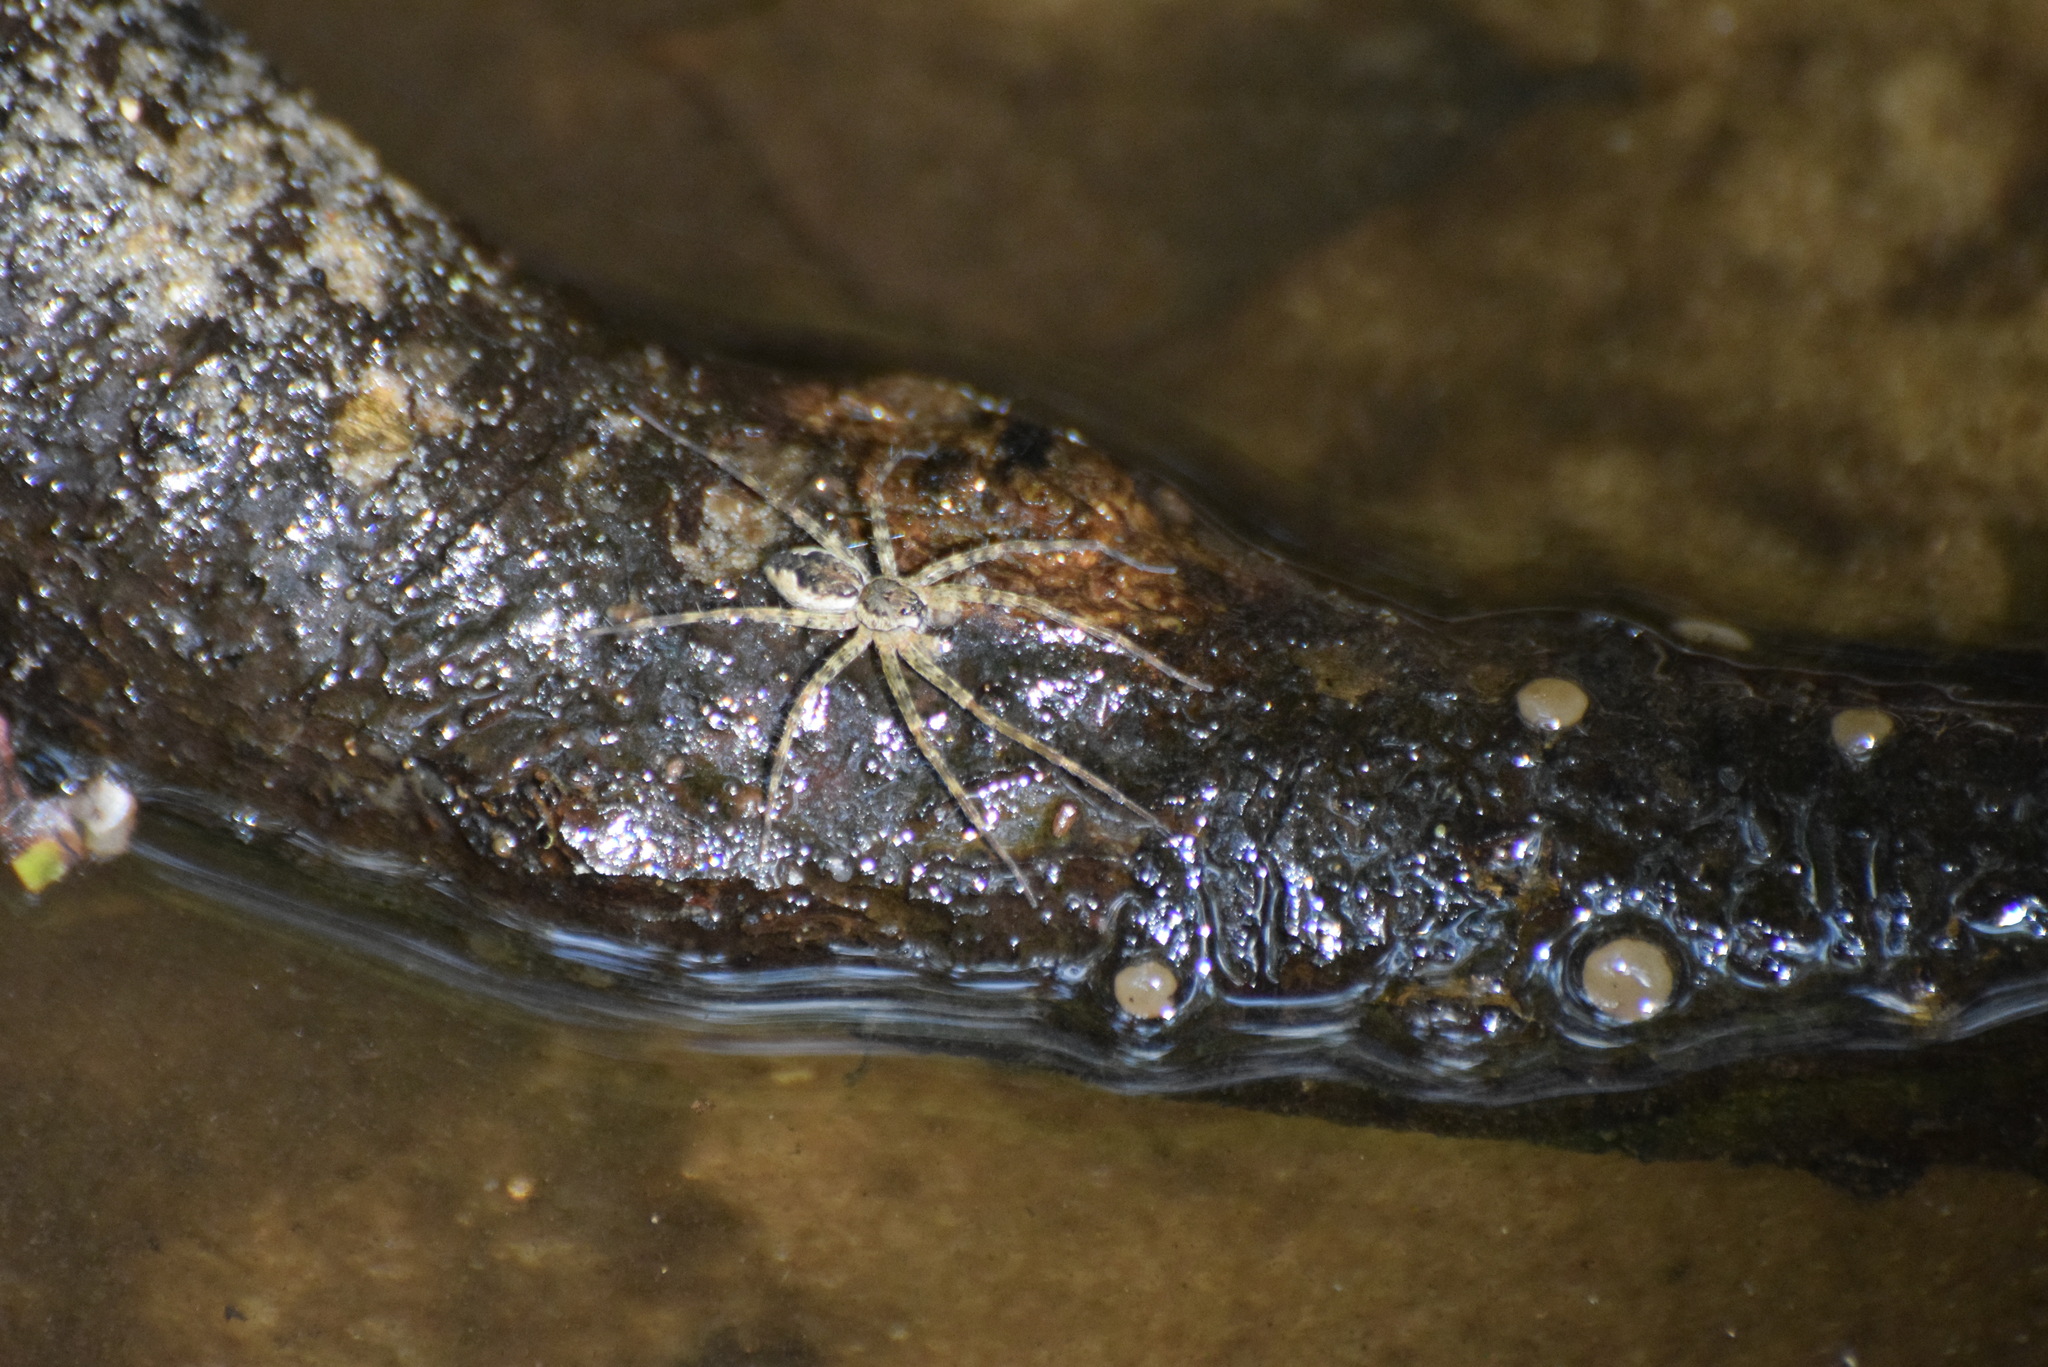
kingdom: Animalia
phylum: Arthropoda
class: Arachnida
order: Araneae
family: Pisauridae
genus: Dolomedes
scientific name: Dolomedes tenebrosus
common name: Dark fishing spider
